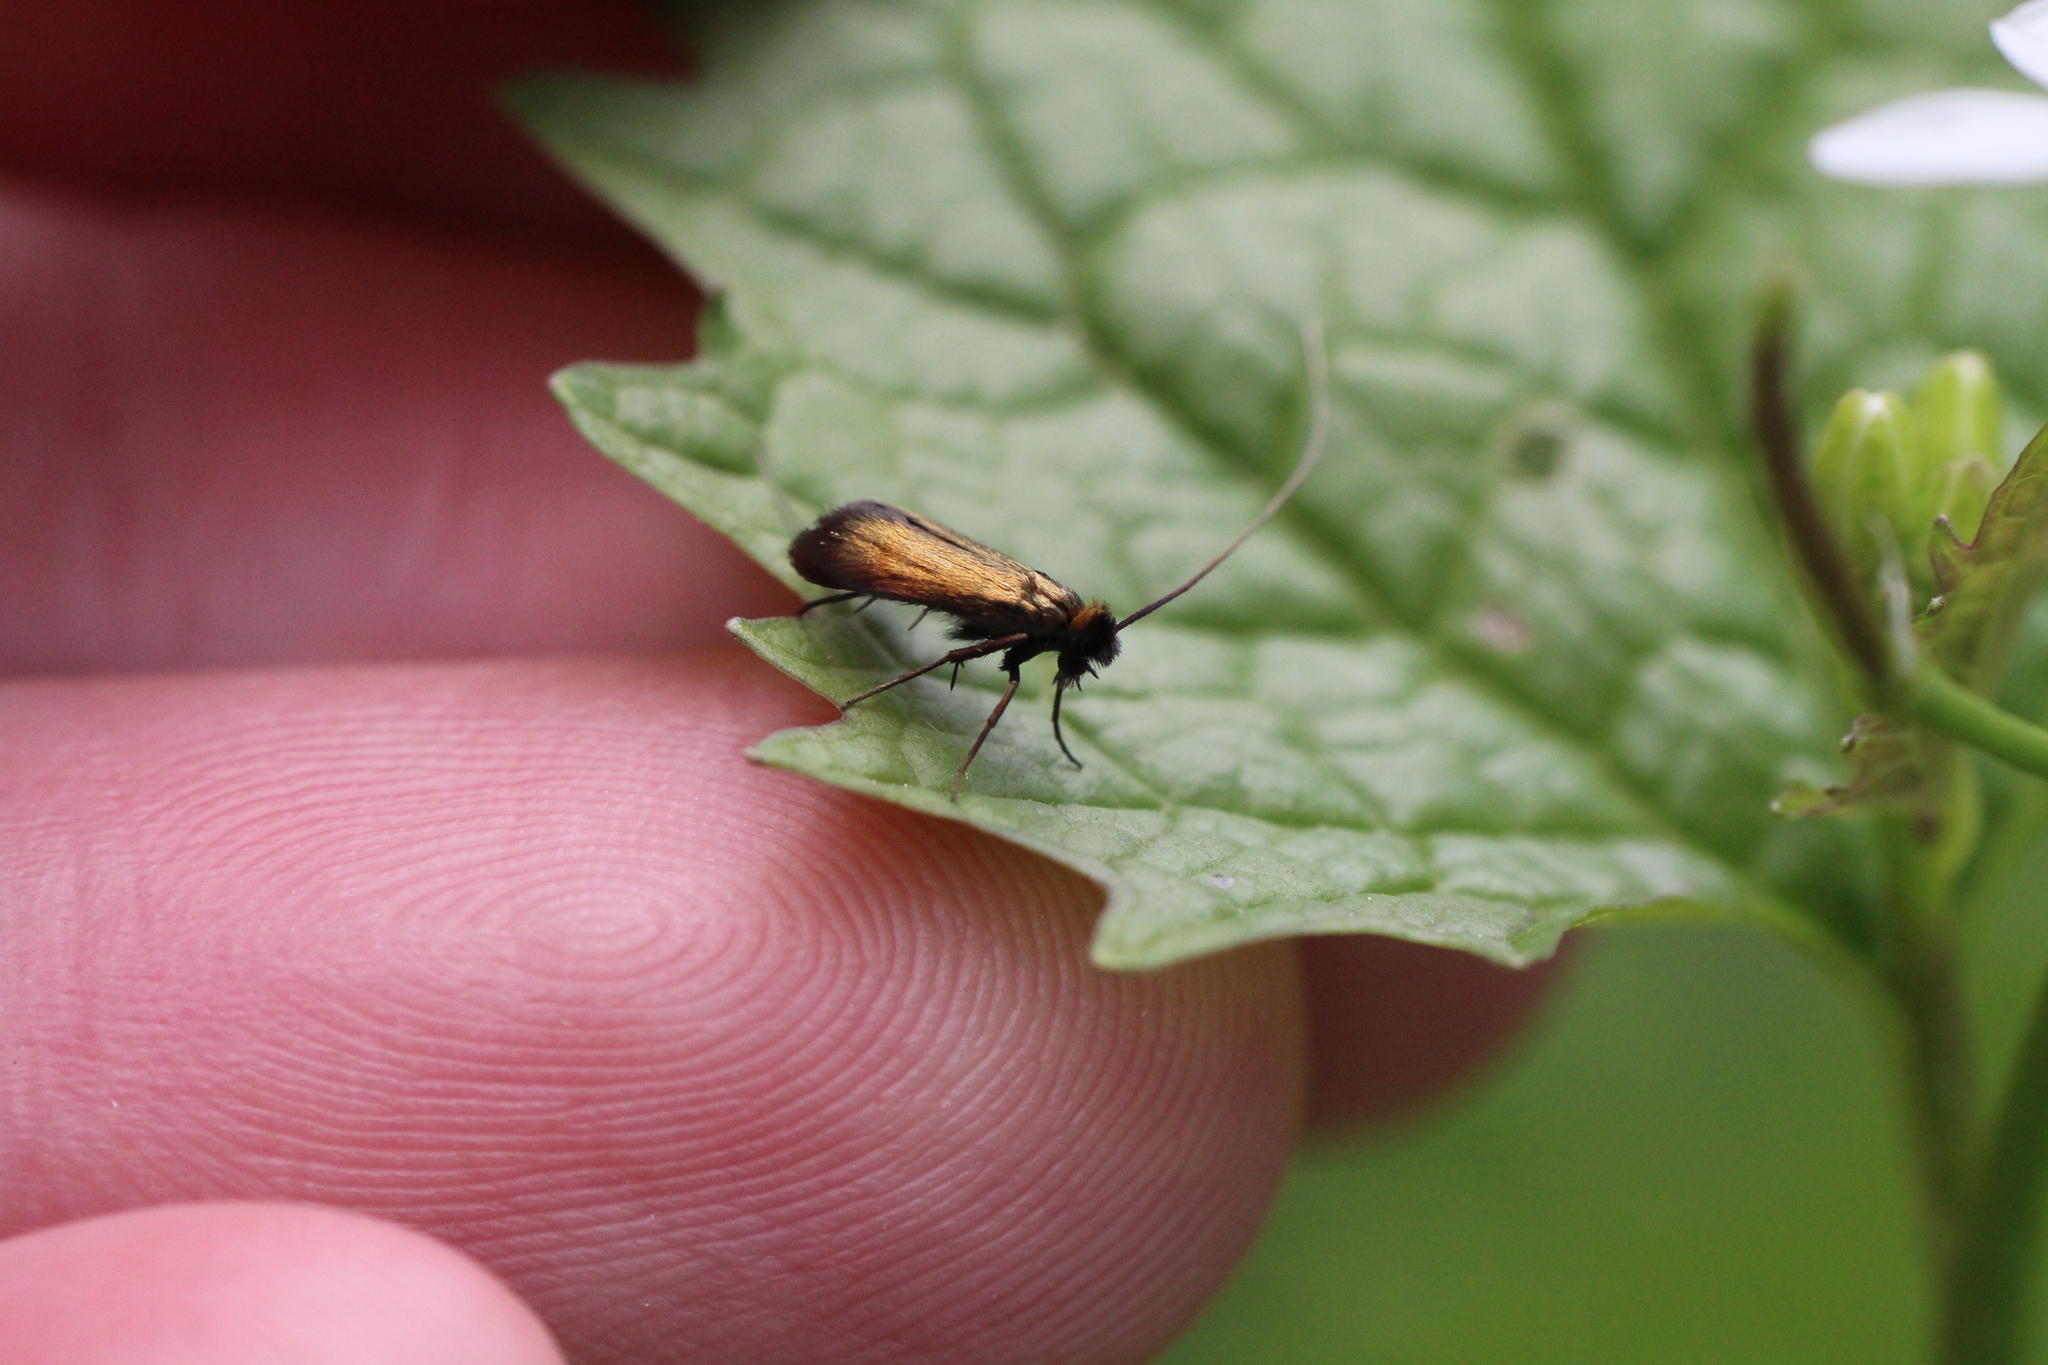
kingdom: Animalia
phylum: Arthropoda
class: Insecta
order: Lepidoptera
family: Adelidae
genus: Cauchas
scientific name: Cauchas rufimitrella
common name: Meadow long-horn
